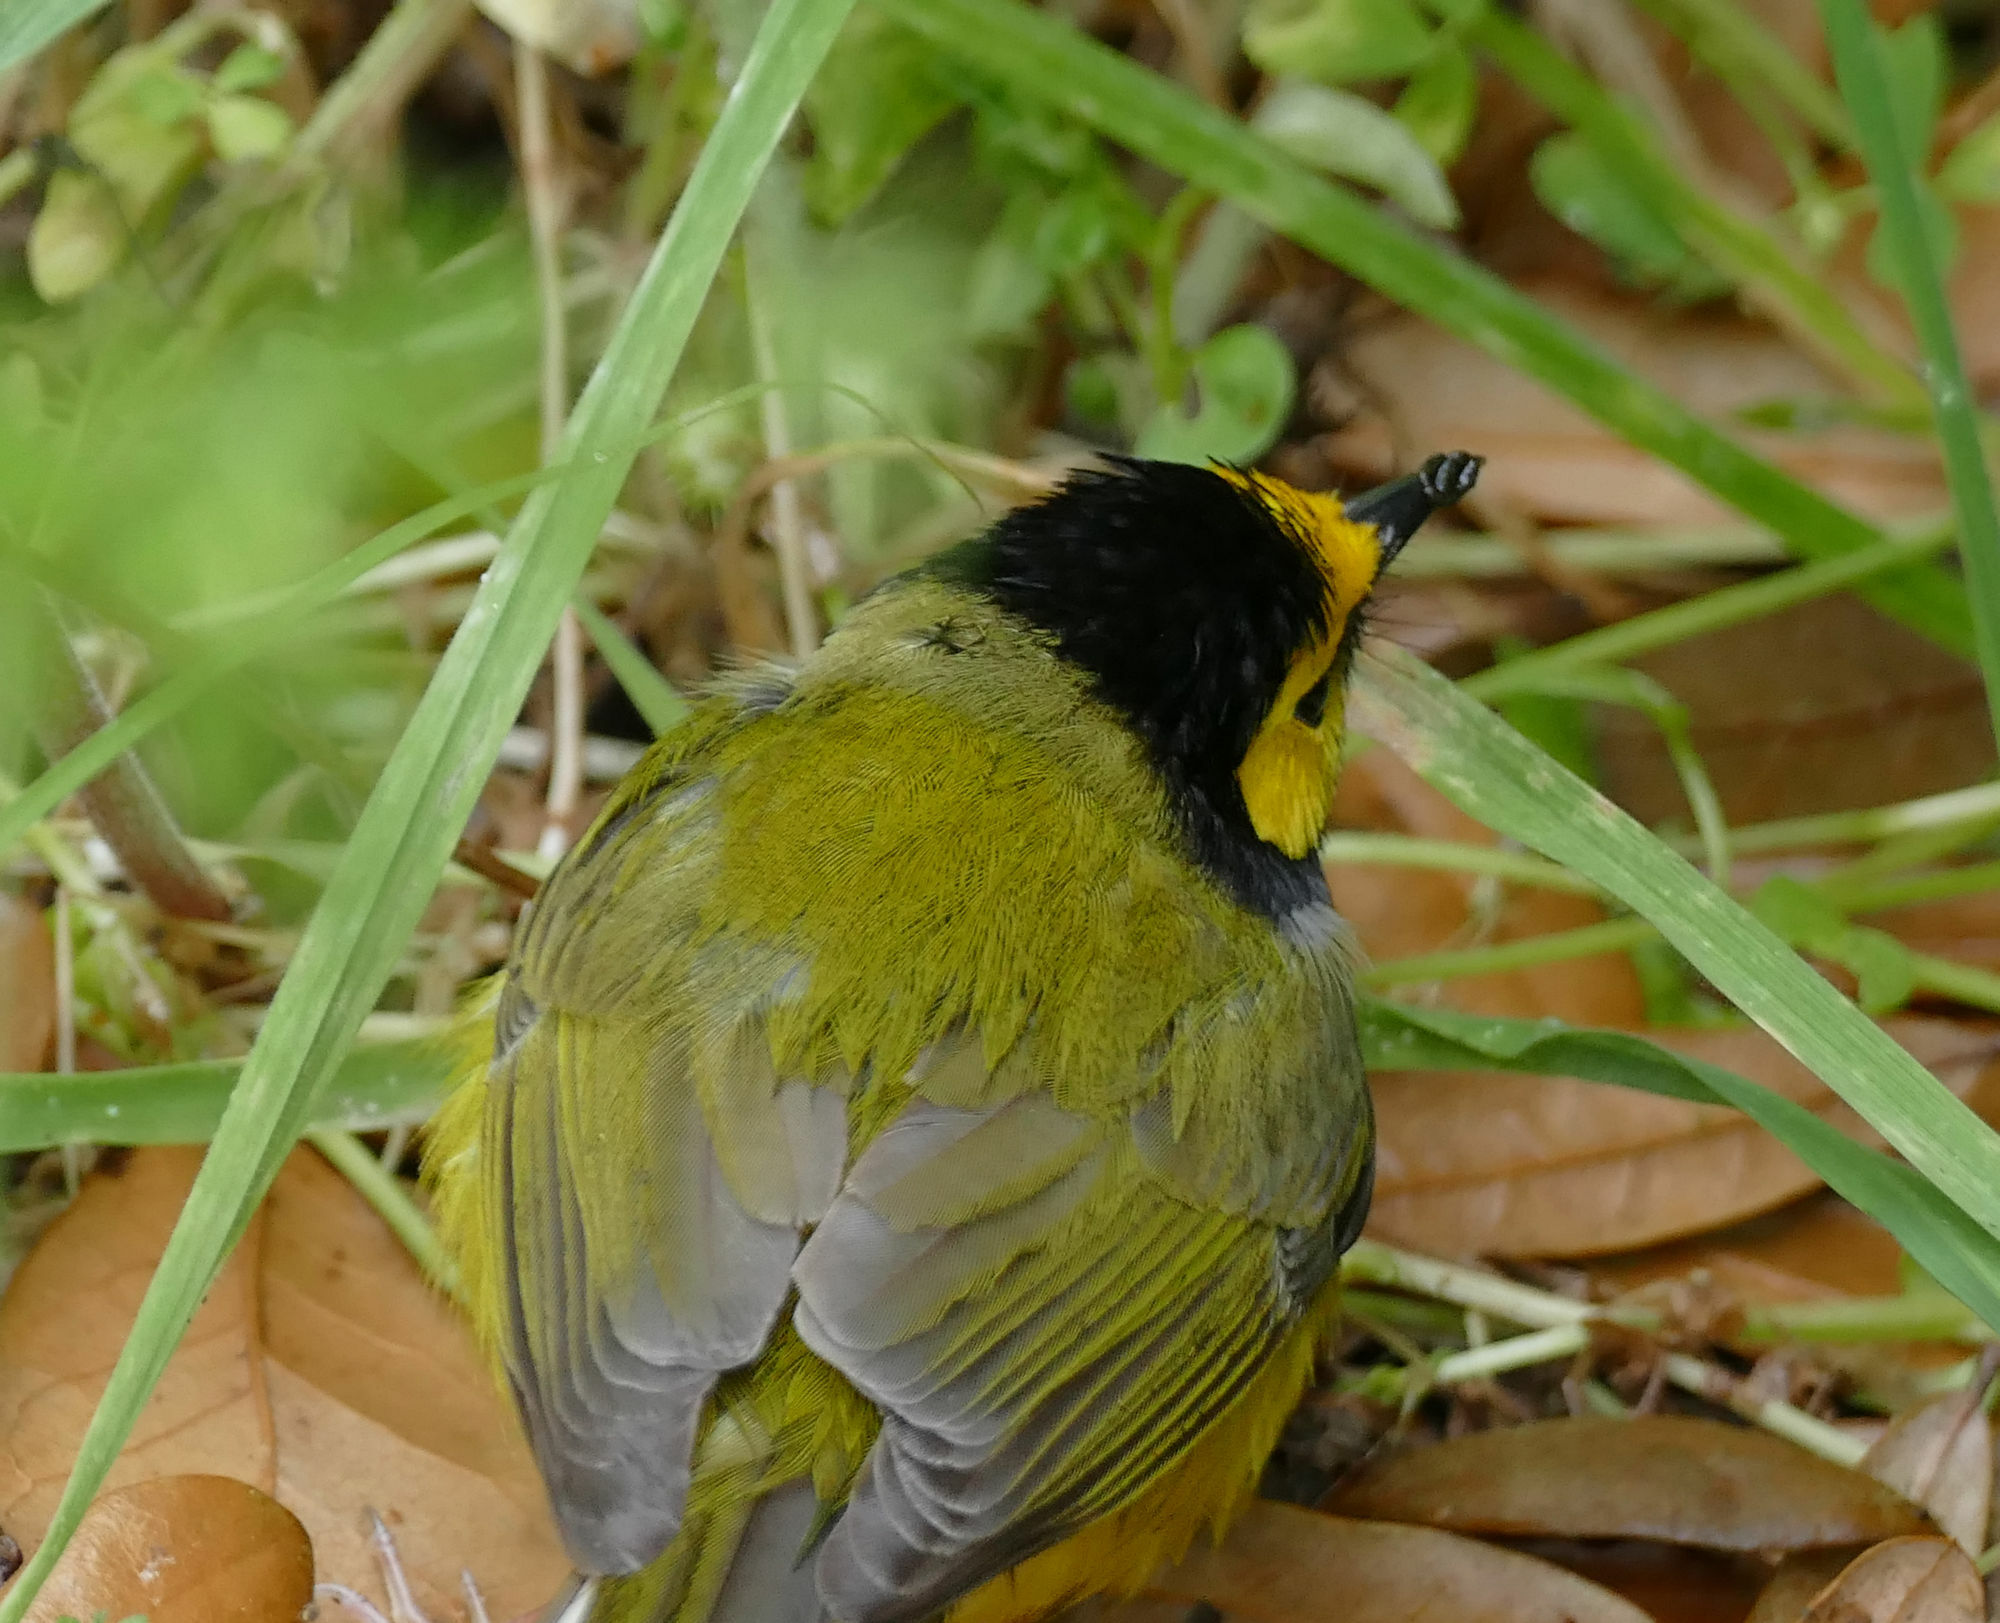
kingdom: Animalia
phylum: Chordata
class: Aves
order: Passeriformes
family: Parulidae
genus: Setophaga
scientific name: Setophaga citrina
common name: Hooded warbler
